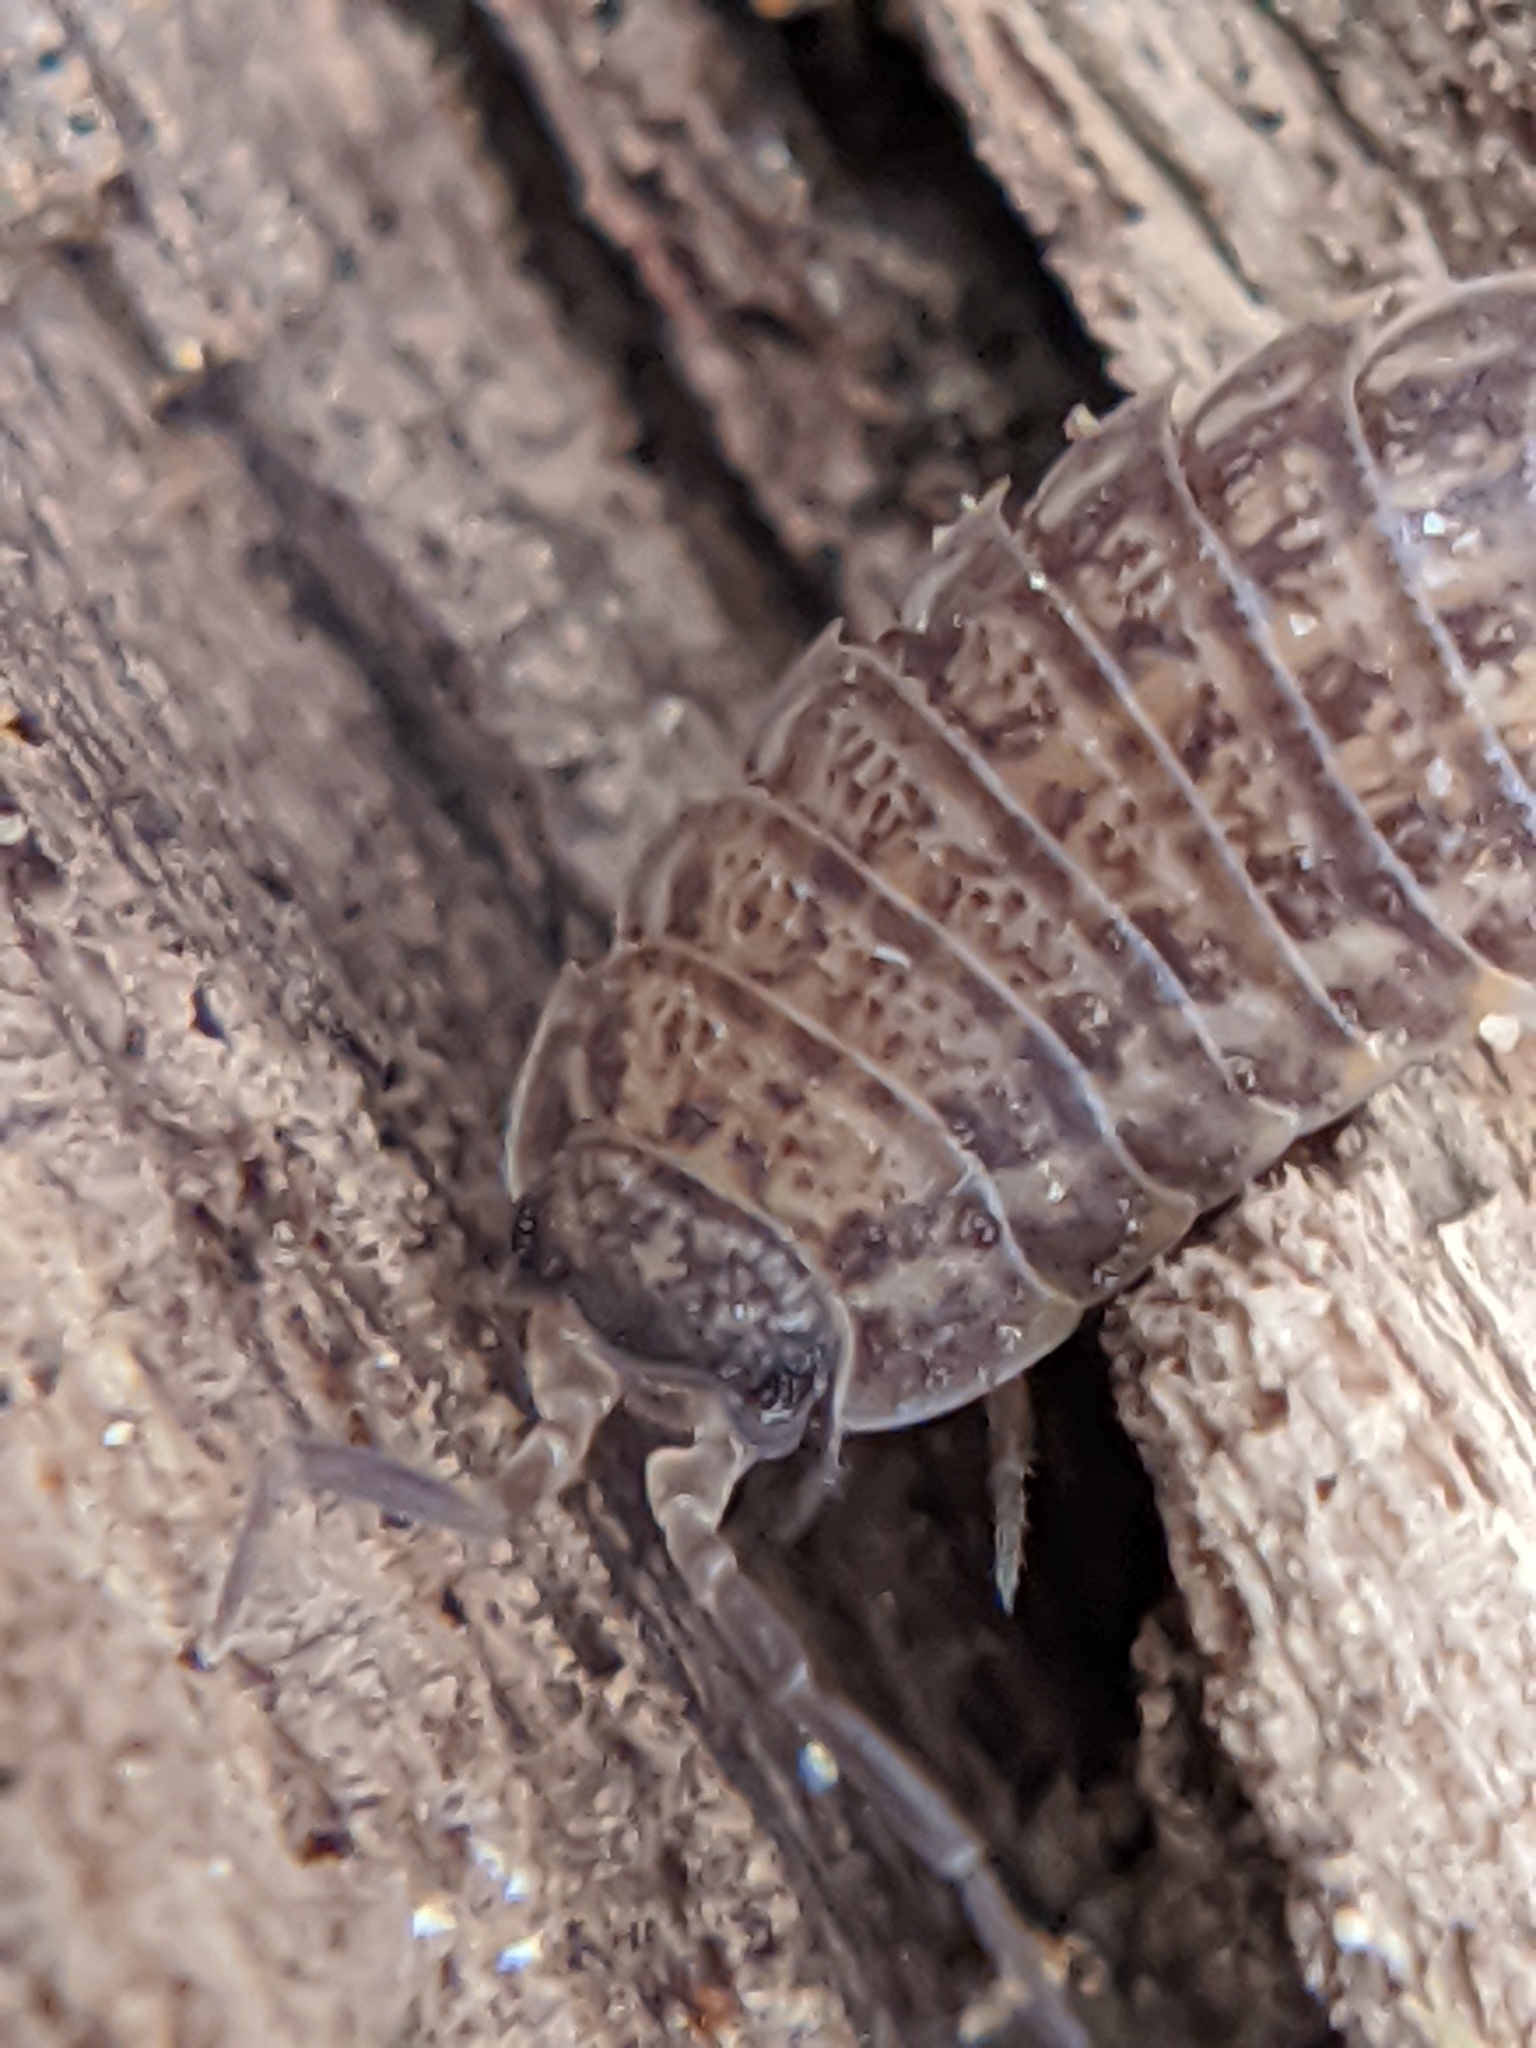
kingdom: Animalia
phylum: Arthropoda
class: Malacostraca
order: Isopoda
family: Trachelipodidae
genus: Trachelipus
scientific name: Trachelipus rathkii
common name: Isopod
